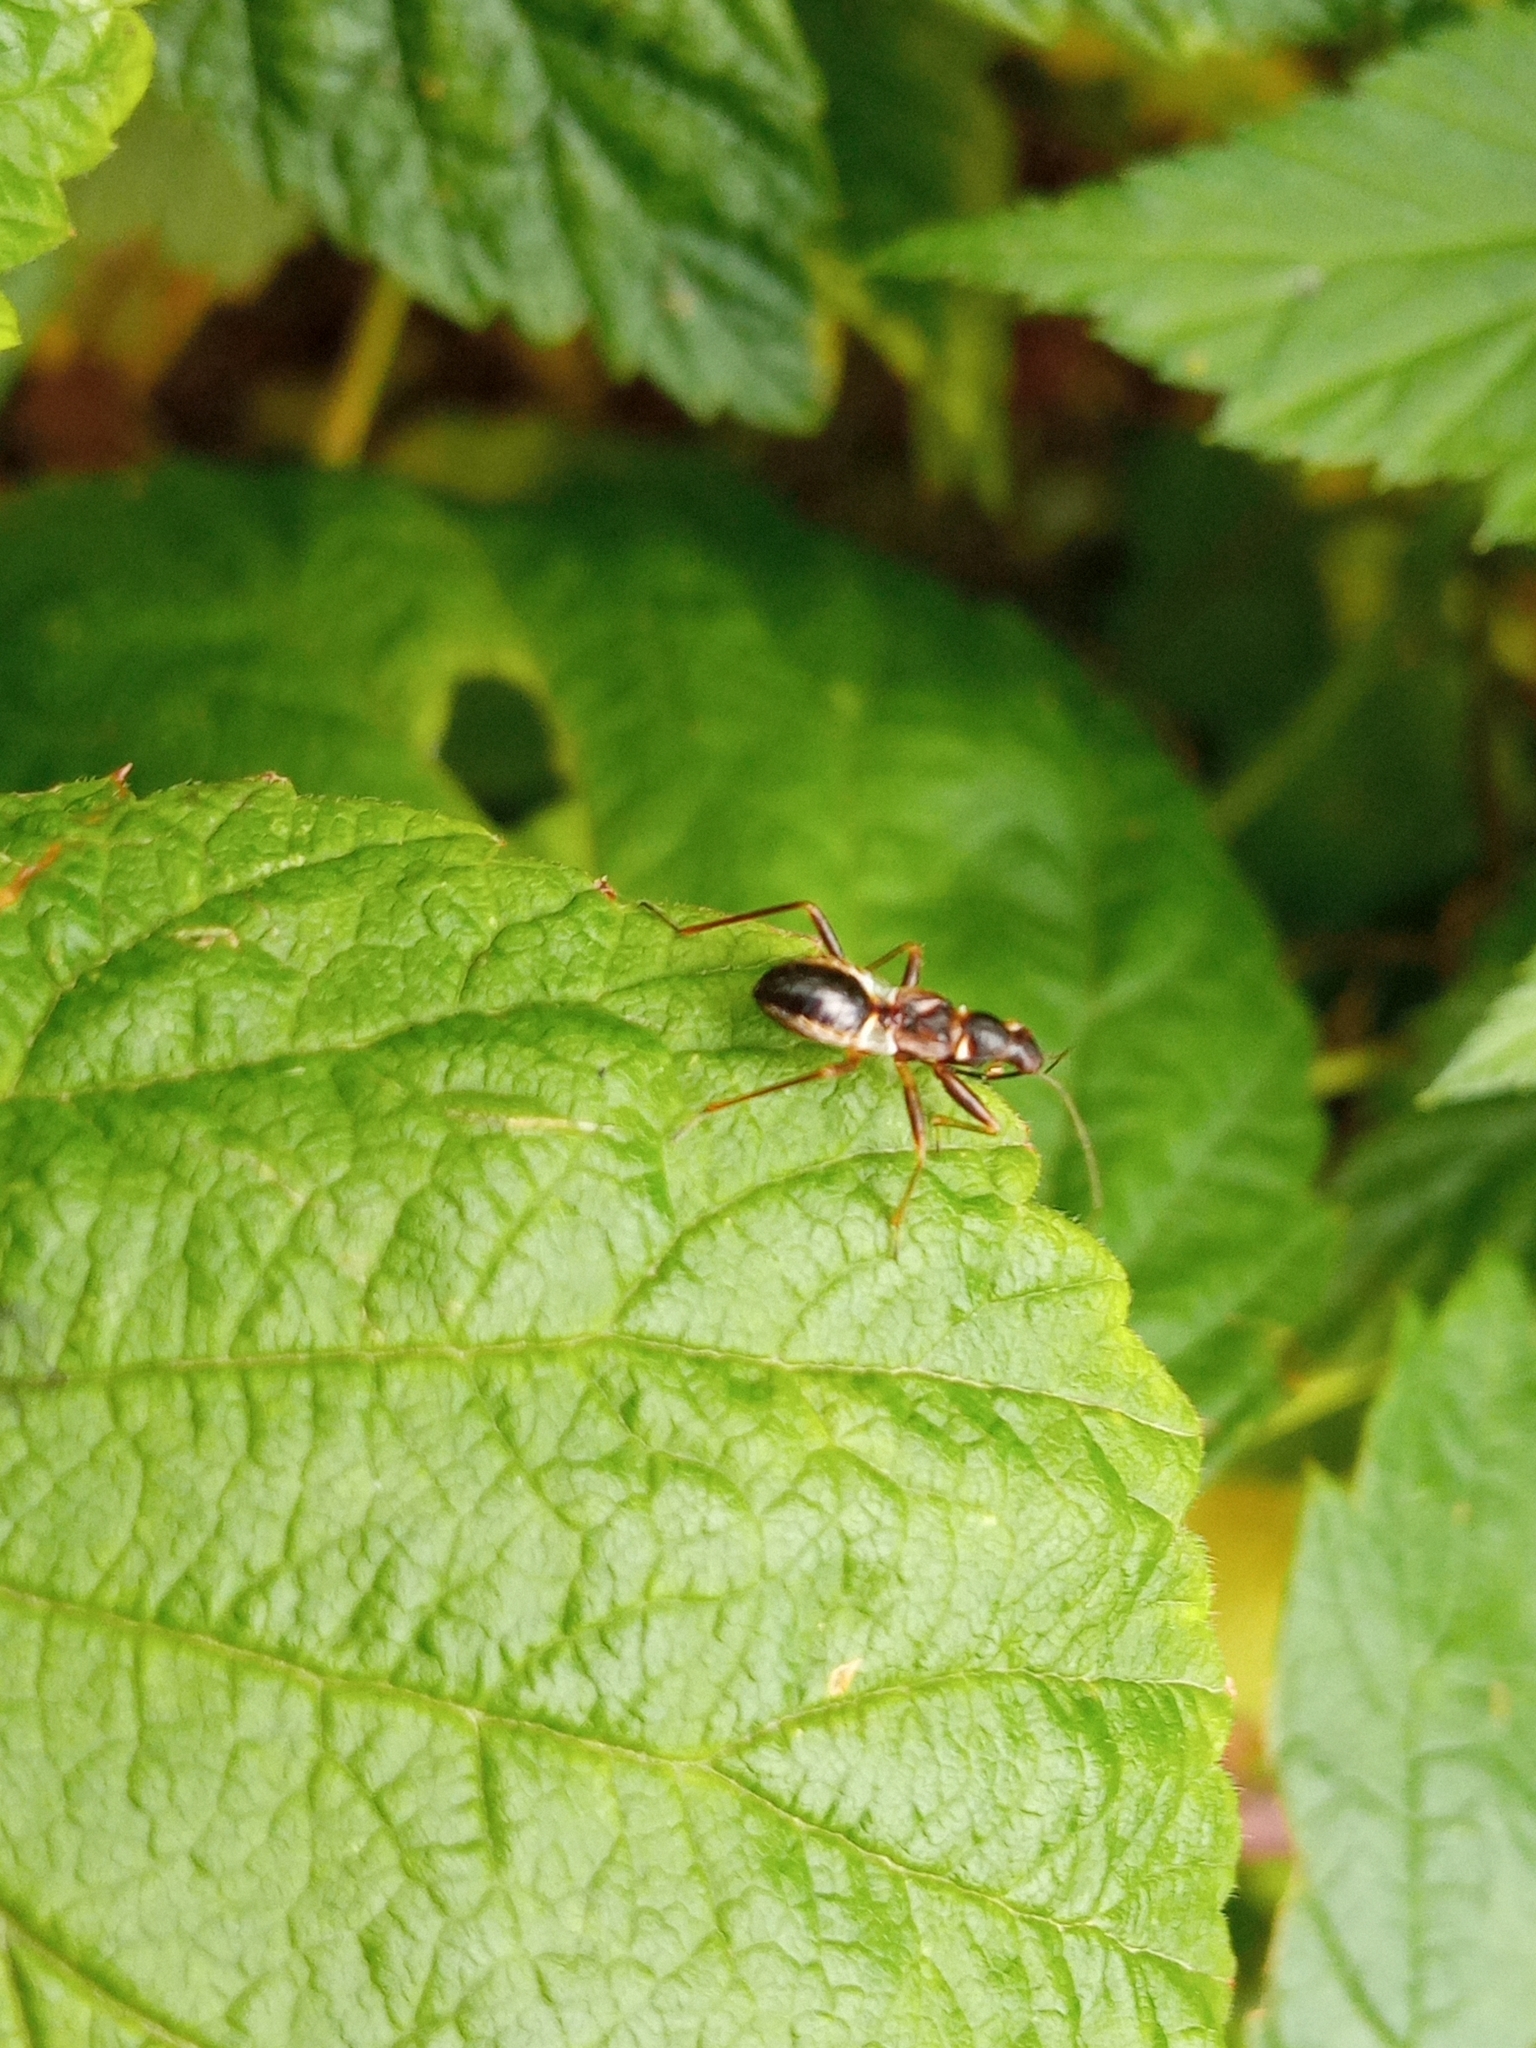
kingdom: Animalia
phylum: Arthropoda
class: Insecta
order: Hemiptera
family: Nabidae
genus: Himacerus
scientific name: Himacerus mirmicoides
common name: Ant damsel bug
